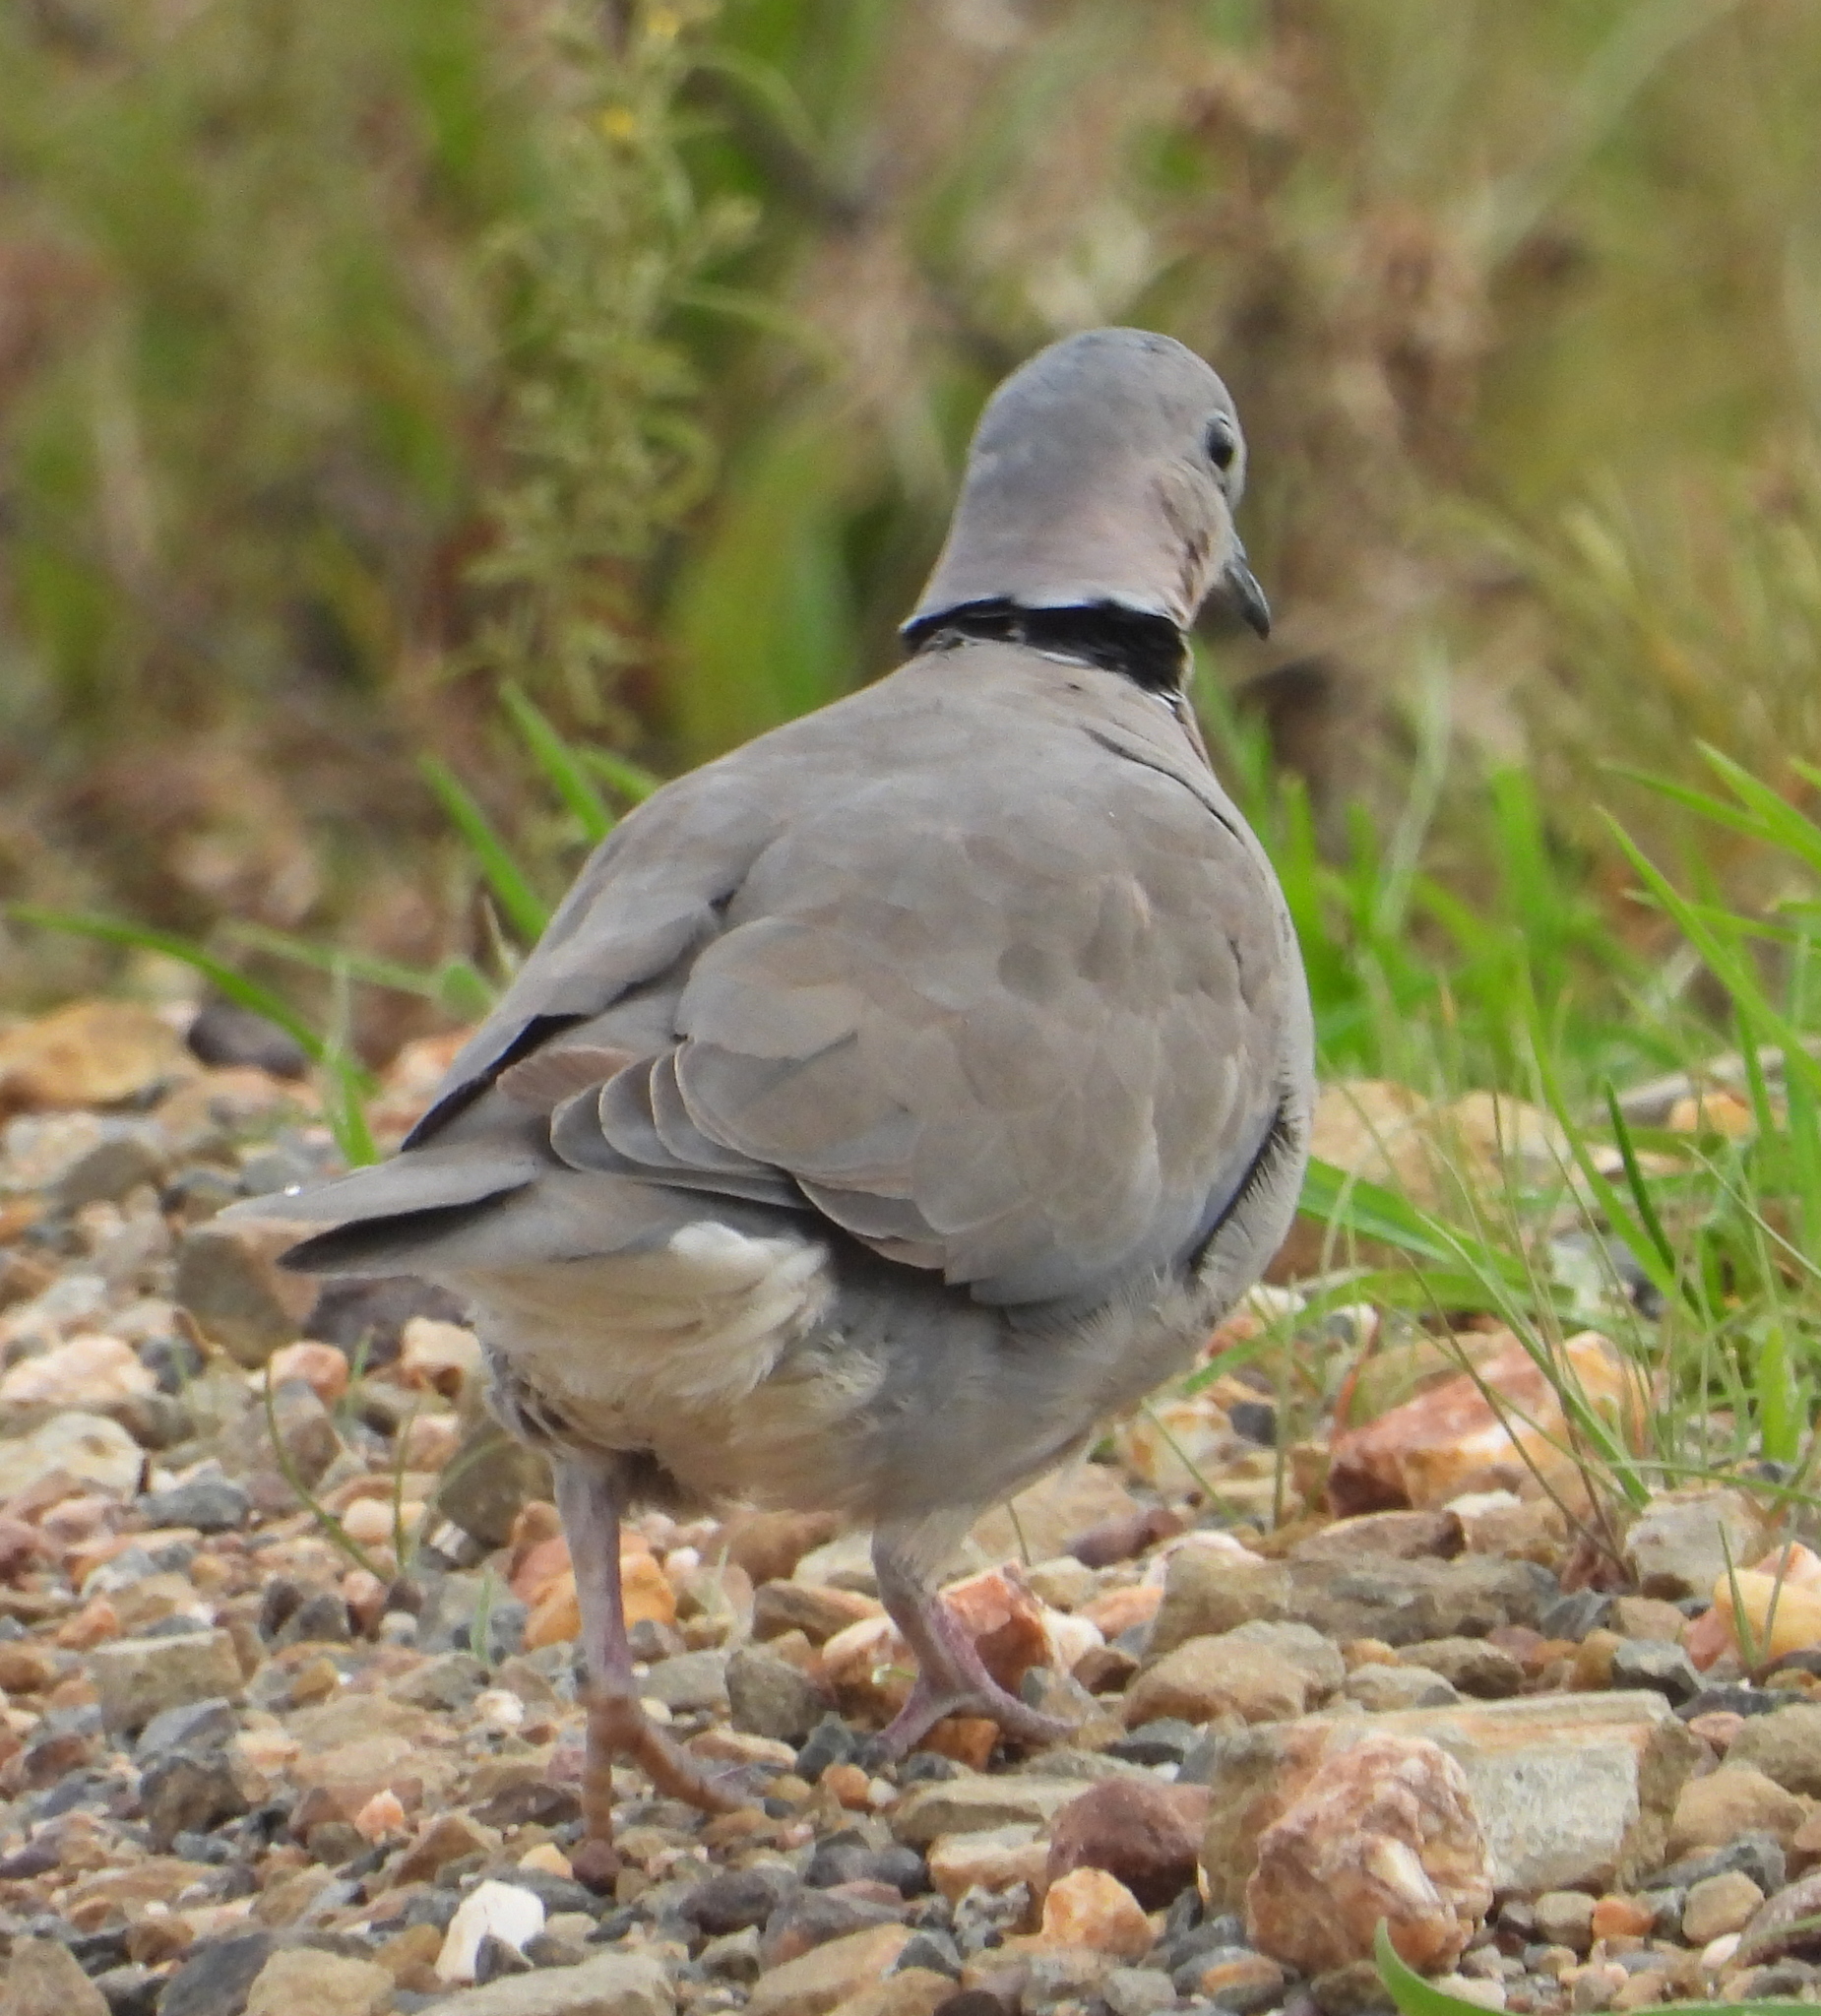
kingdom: Animalia
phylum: Chordata
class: Aves
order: Columbiformes
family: Columbidae
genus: Streptopelia
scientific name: Streptopelia capicola
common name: Ring-necked dove
